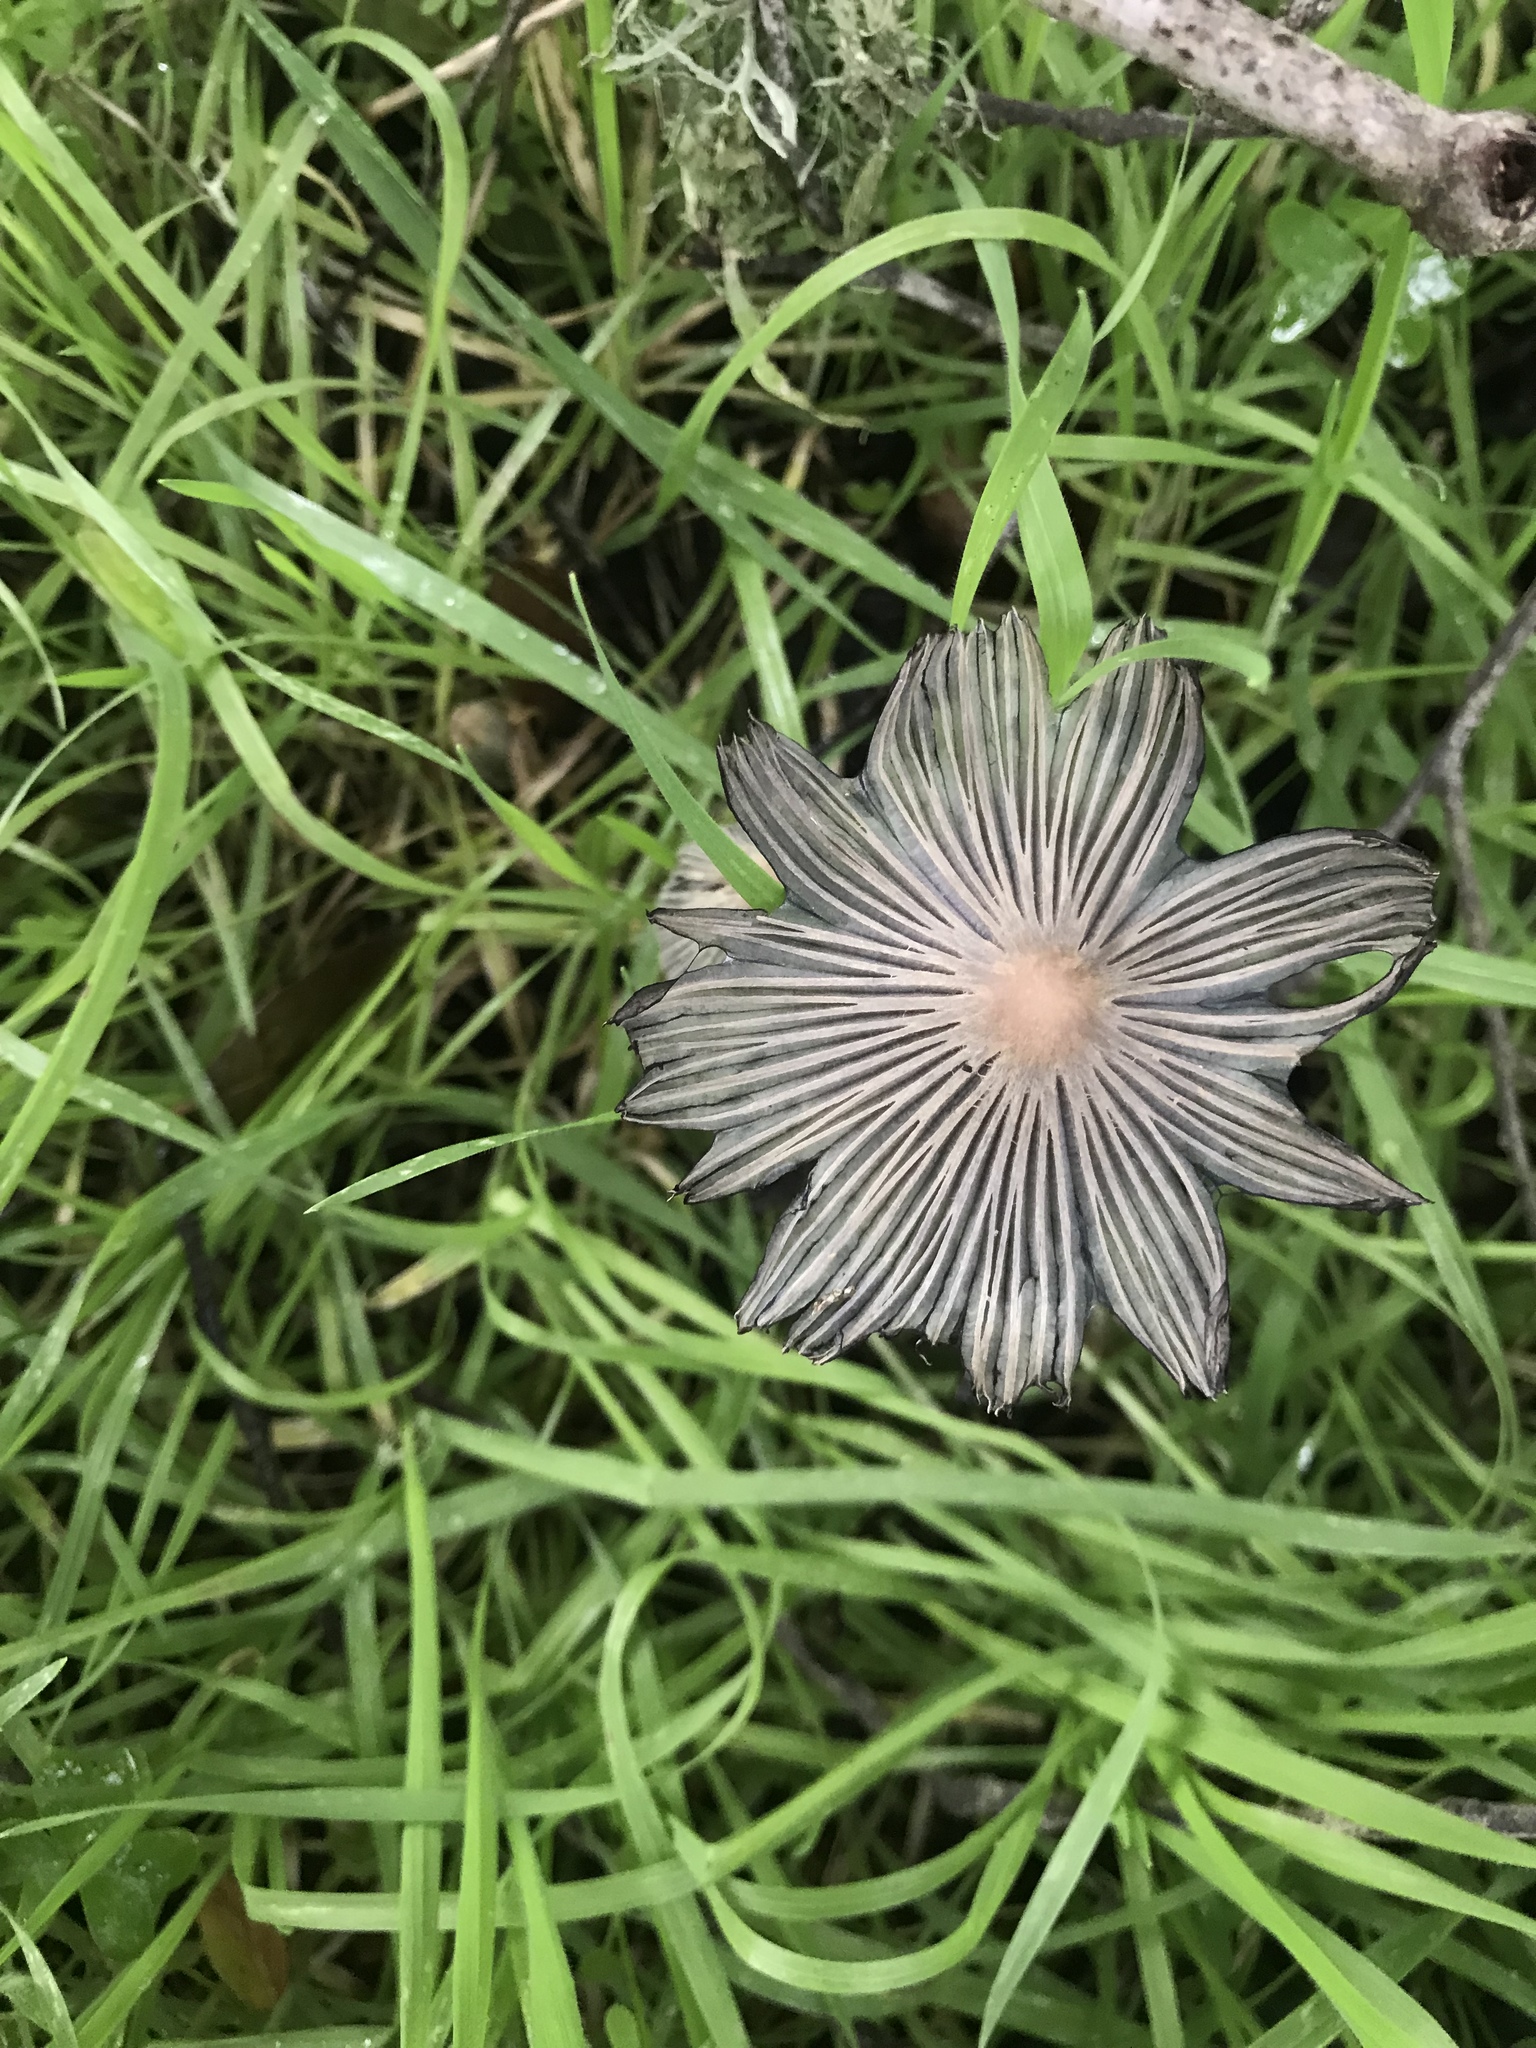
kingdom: Fungi
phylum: Basidiomycota
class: Agaricomycetes
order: Agaricales
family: Psathyrellaceae
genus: Coprinopsis
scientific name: Coprinopsis lagopus
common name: Hare'sfoot inkcap
